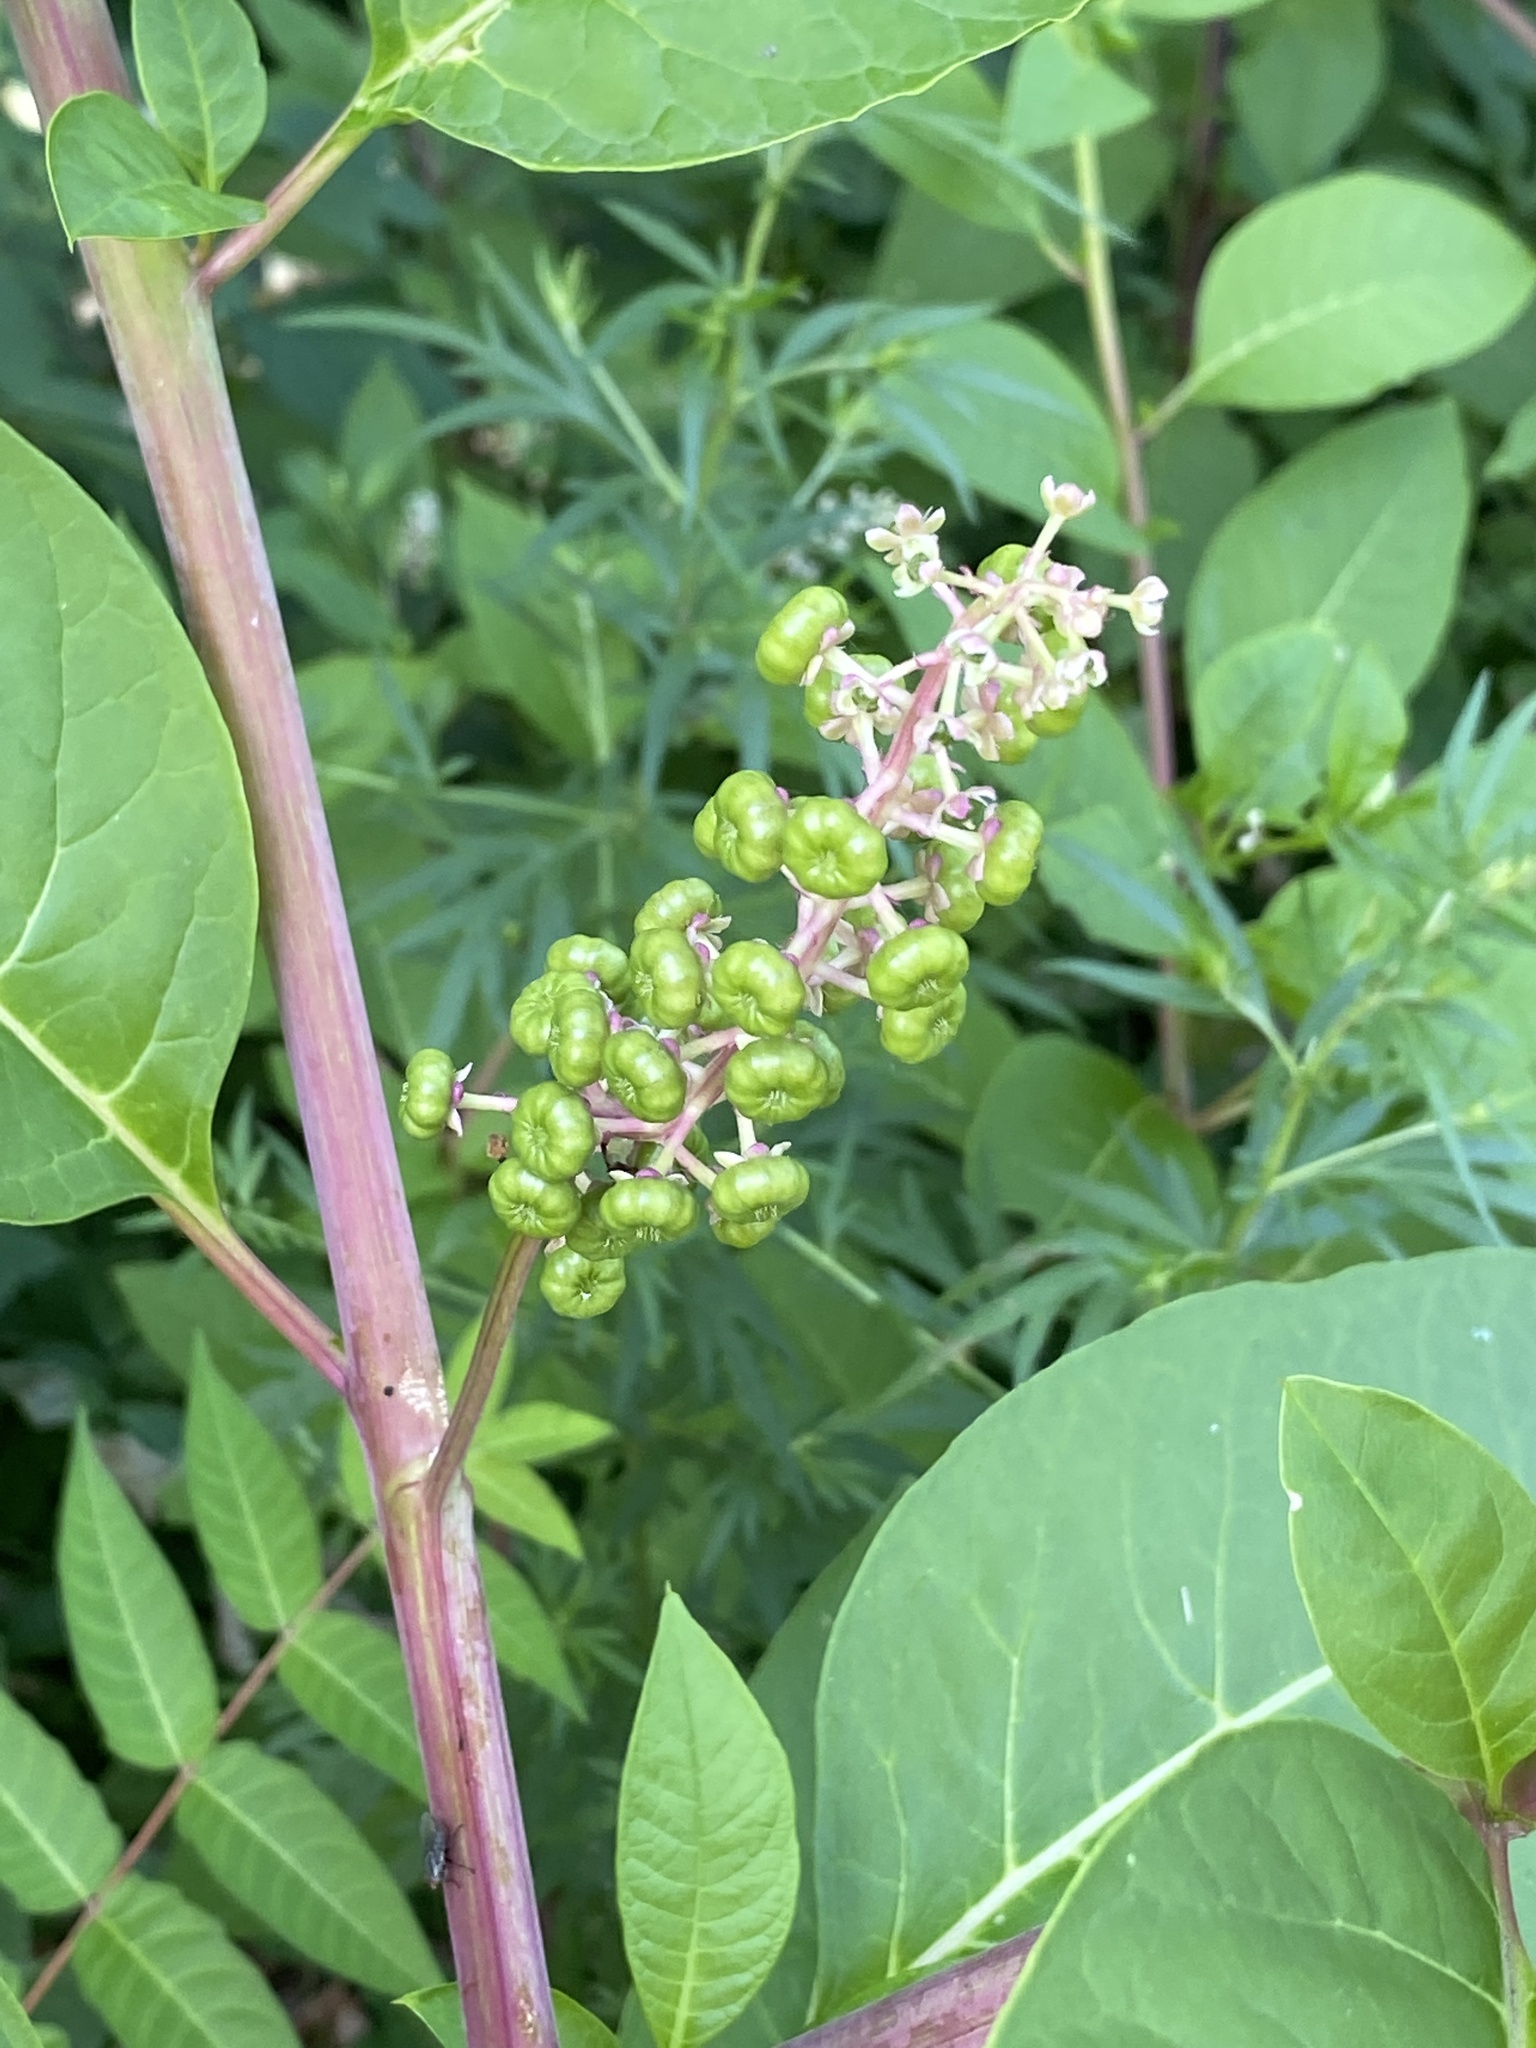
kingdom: Plantae
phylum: Tracheophyta
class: Magnoliopsida
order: Caryophyllales
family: Phytolaccaceae
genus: Phytolacca
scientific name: Phytolacca americana
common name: American pokeweed
